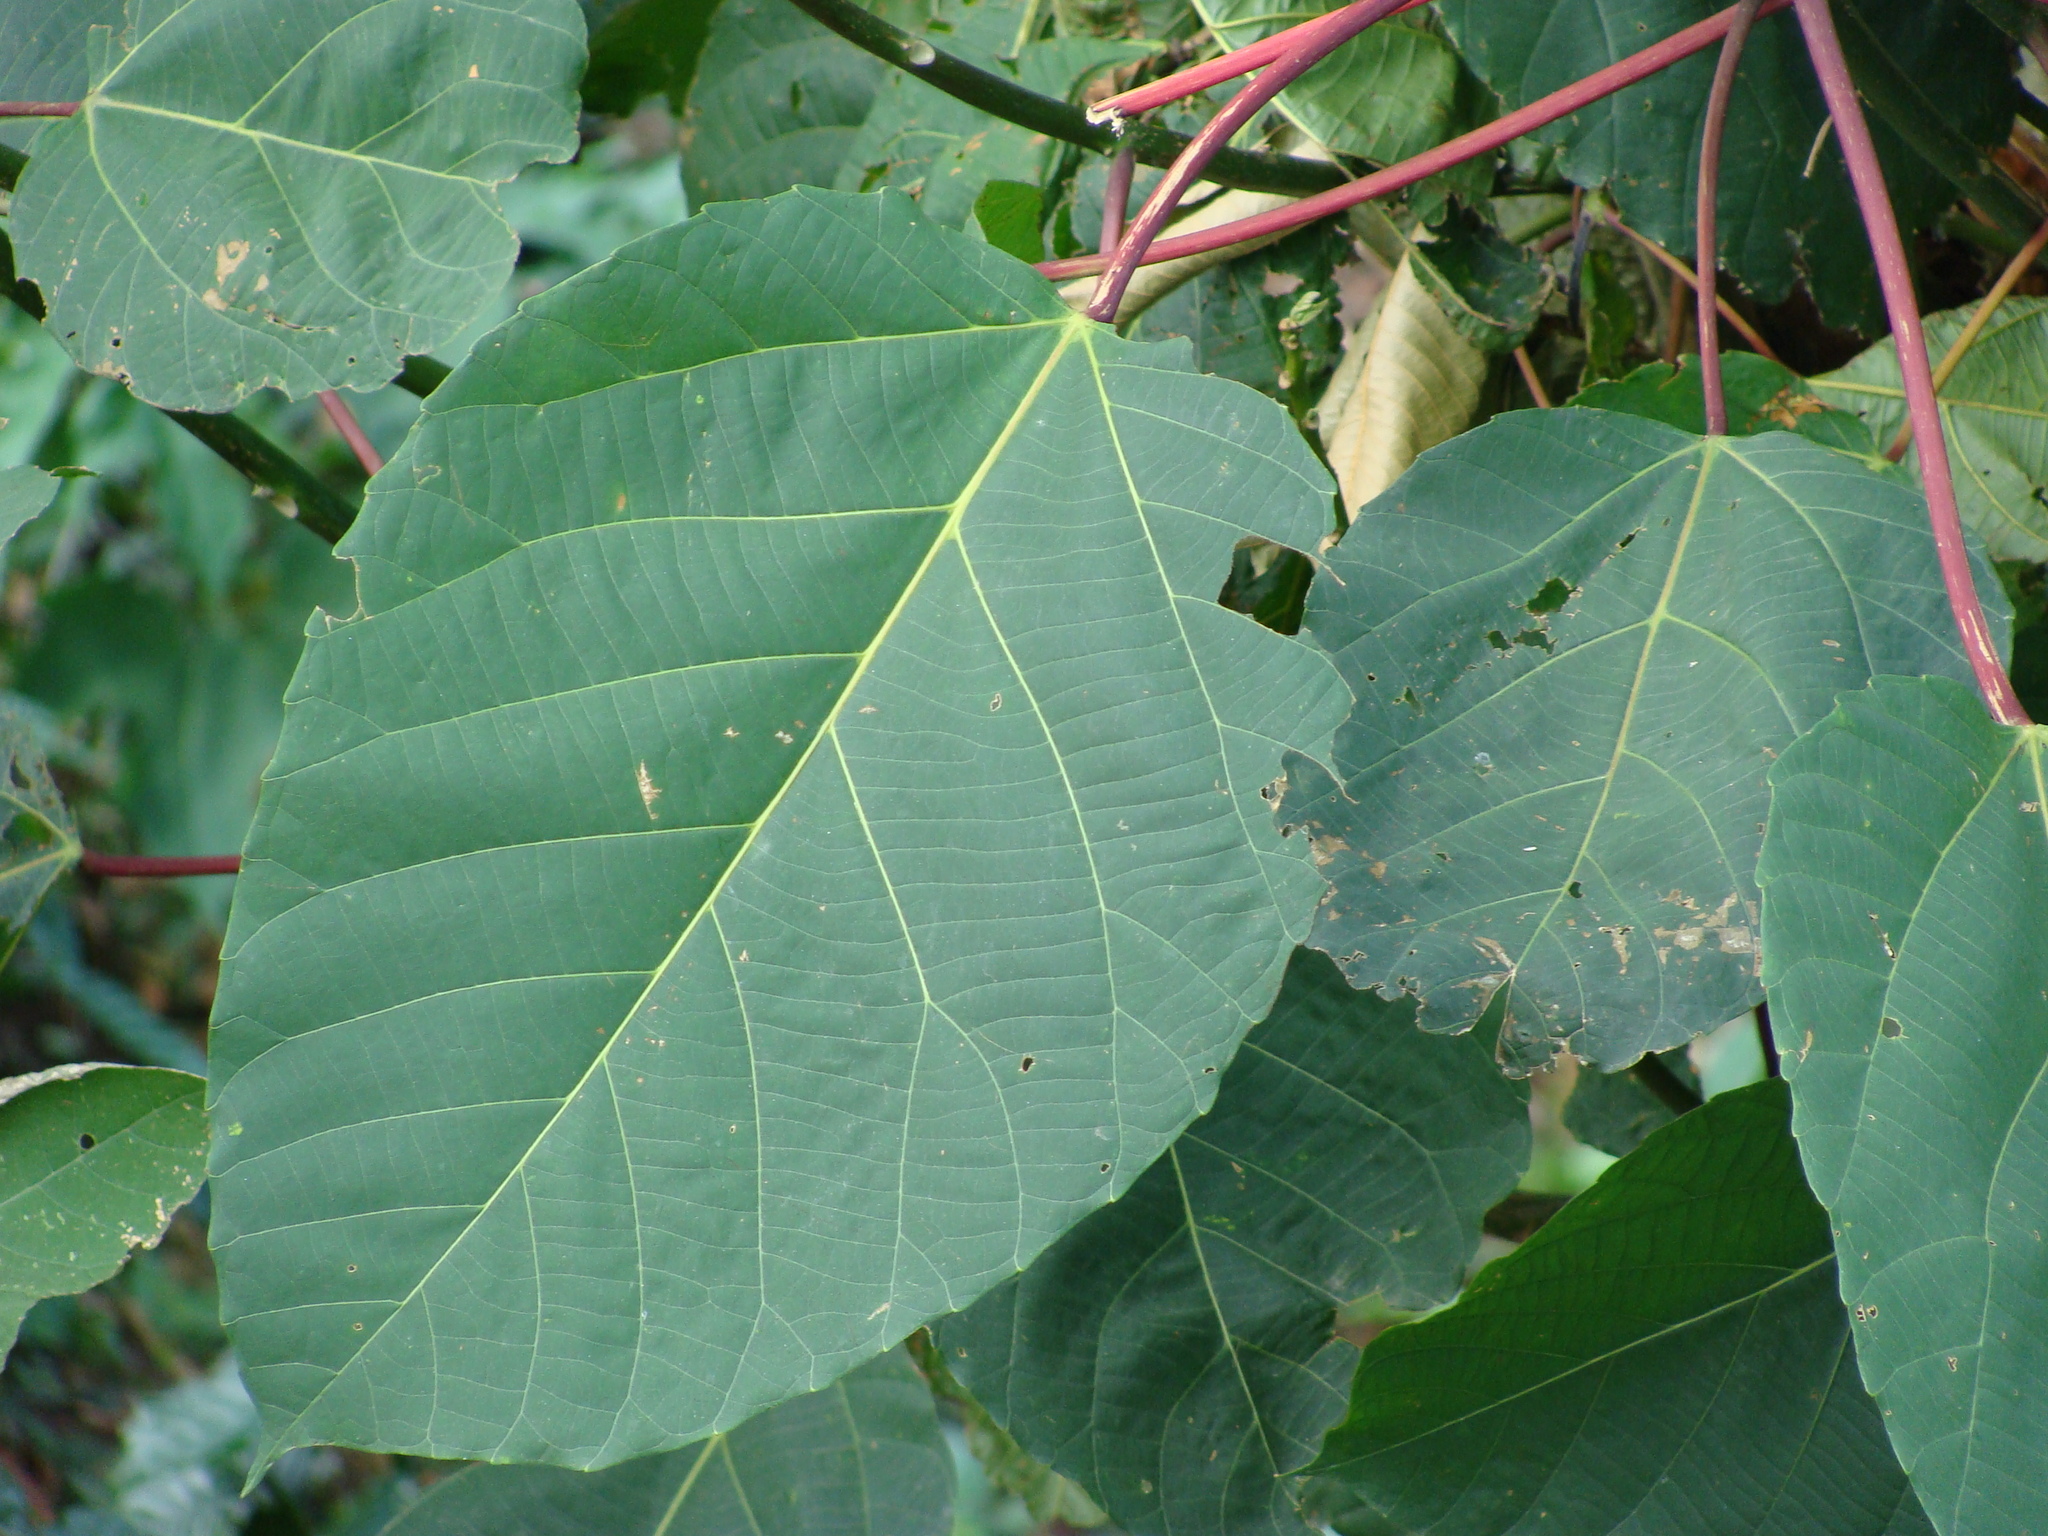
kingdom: Plantae
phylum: Tracheophyta
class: Magnoliopsida
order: Malpighiales
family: Euphorbiaceae
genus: Alchornea
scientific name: Alchornea latifolia
